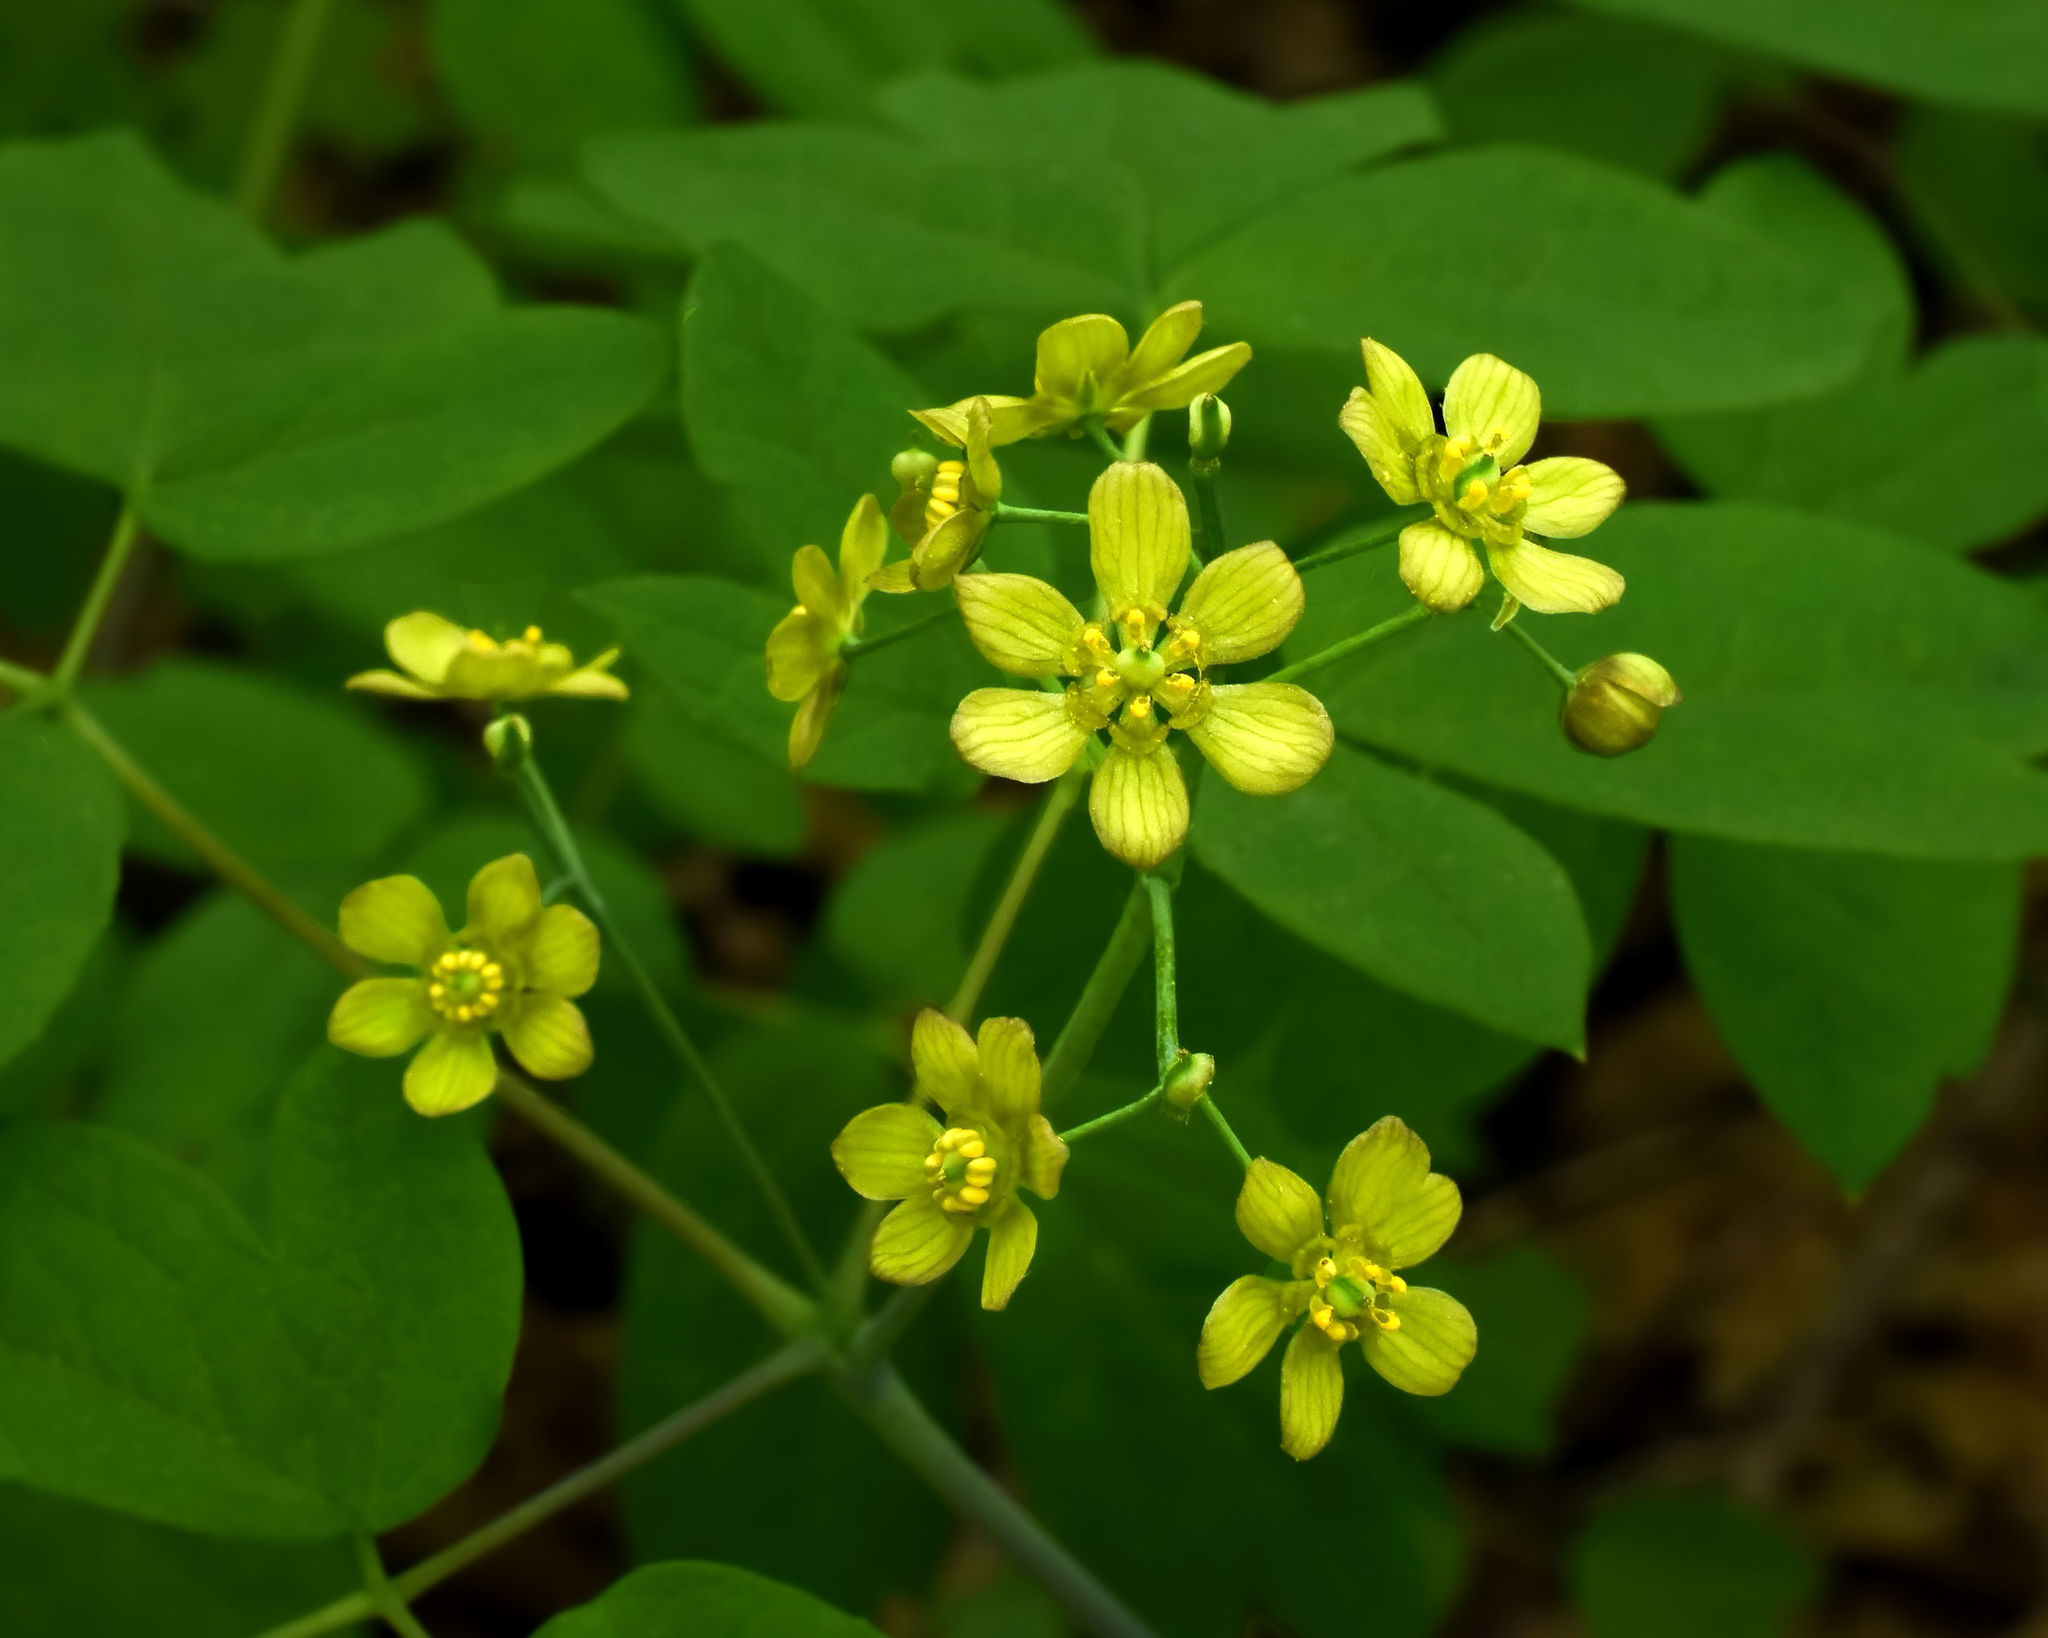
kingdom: Plantae
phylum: Tracheophyta
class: Magnoliopsida
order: Ranunculales
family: Berberidaceae
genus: Caulophyllum
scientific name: Caulophyllum thalictroides
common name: Blue cohosh
